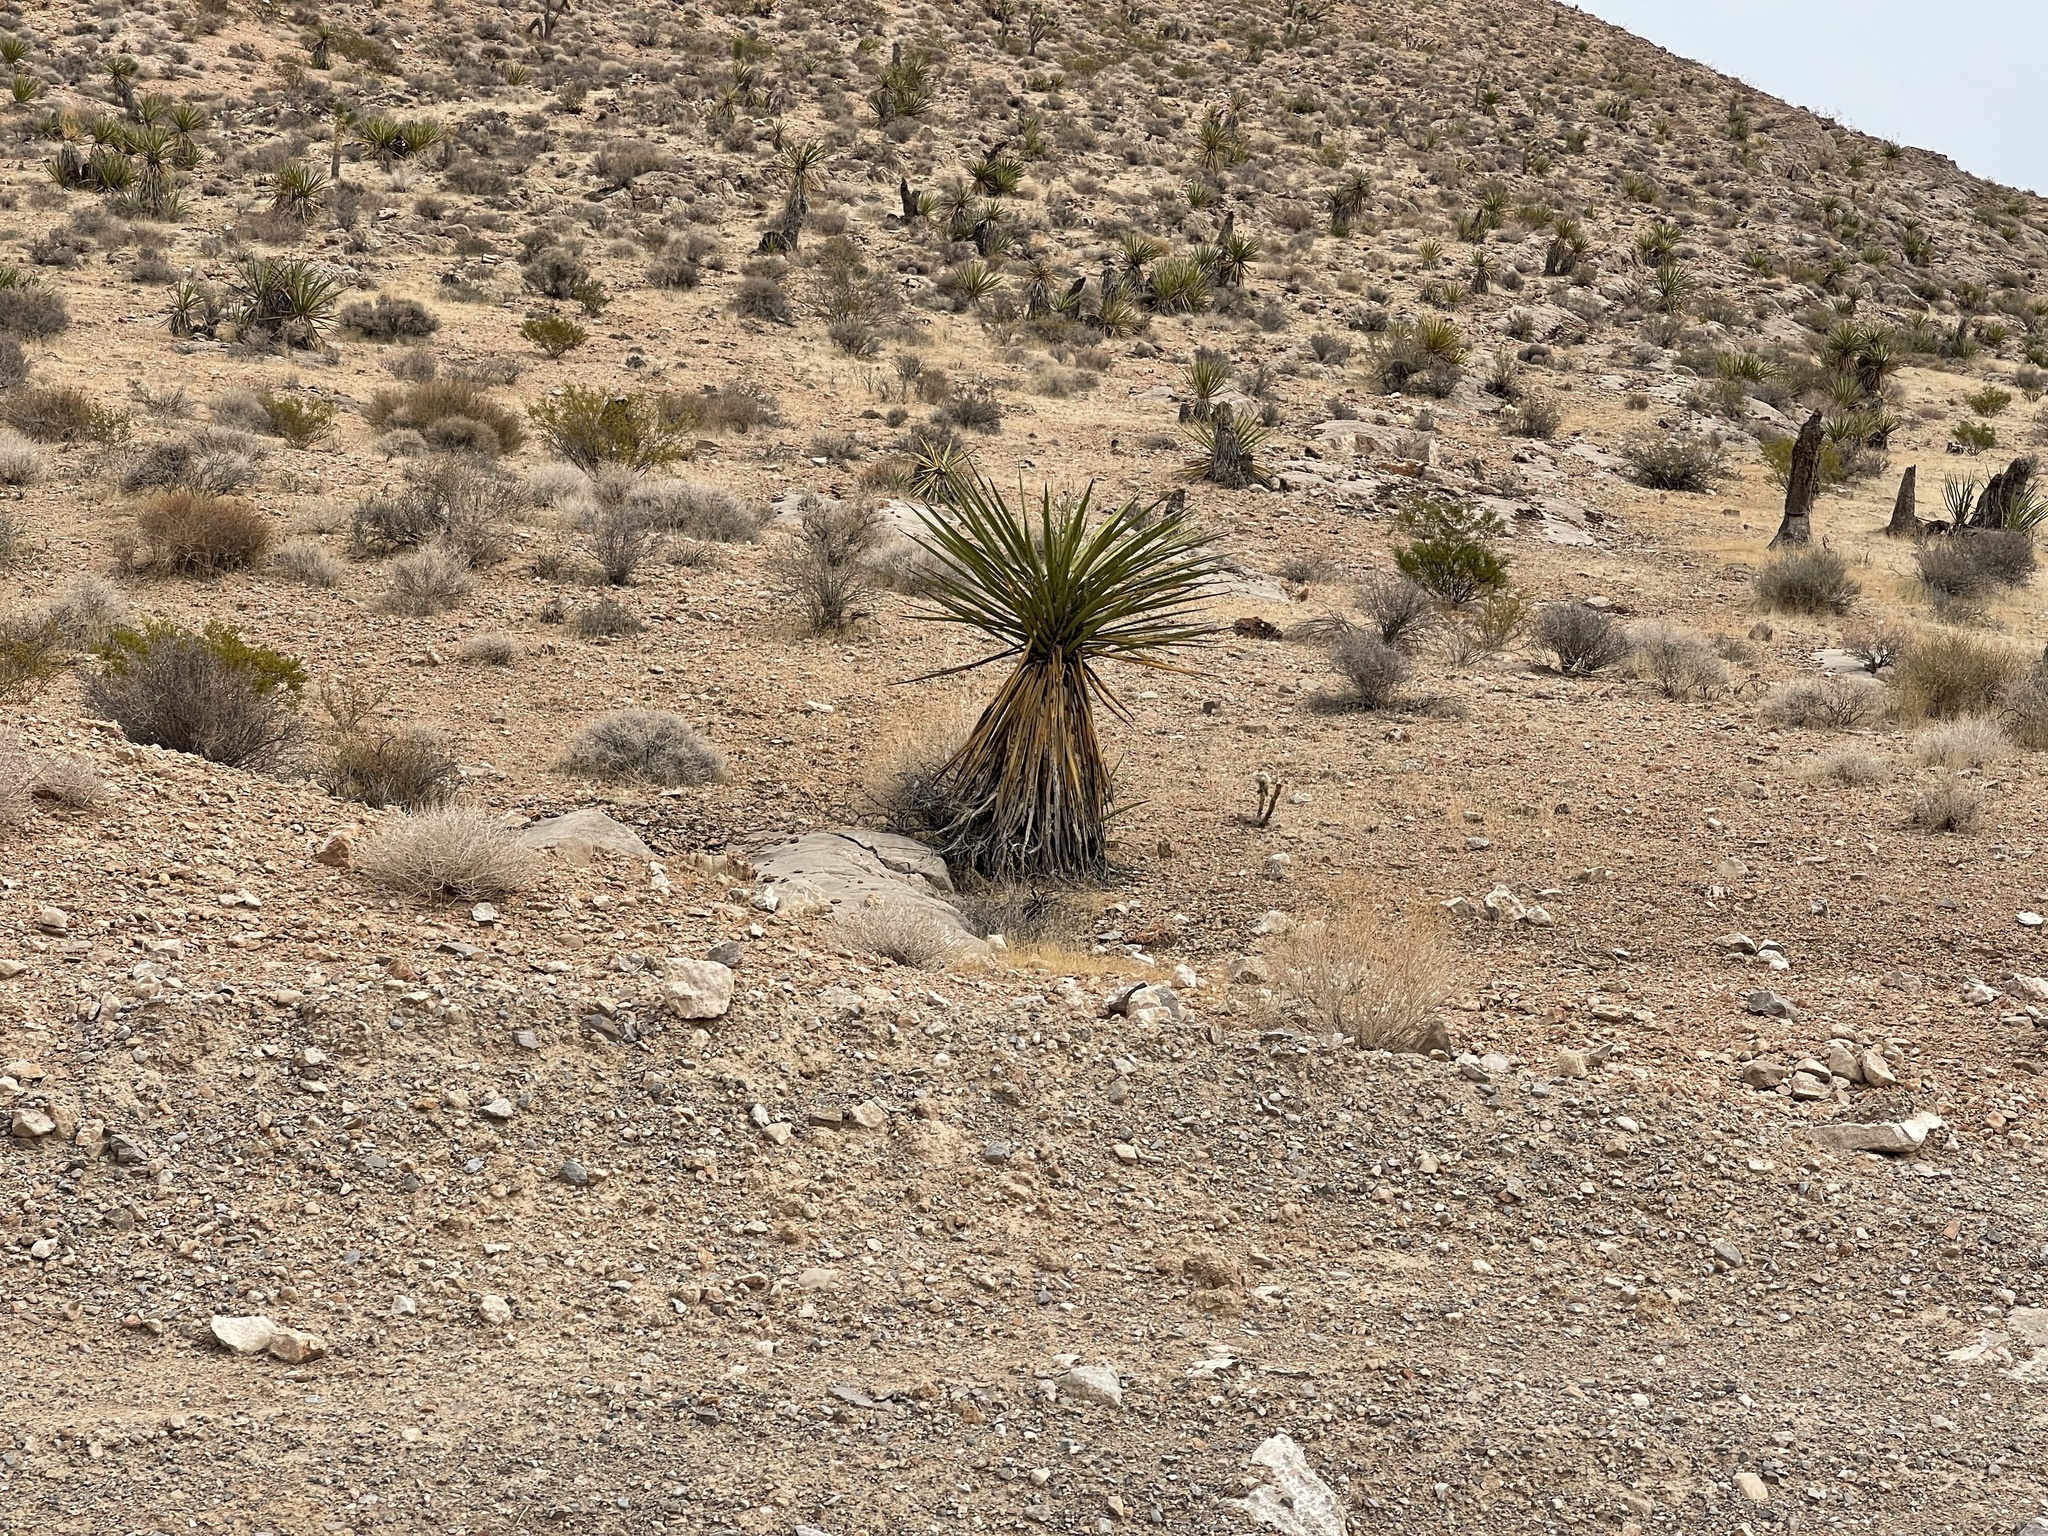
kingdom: Plantae
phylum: Tracheophyta
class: Liliopsida
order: Asparagales
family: Asparagaceae
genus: Yucca
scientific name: Yucca schidigera
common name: Mojave yucca
